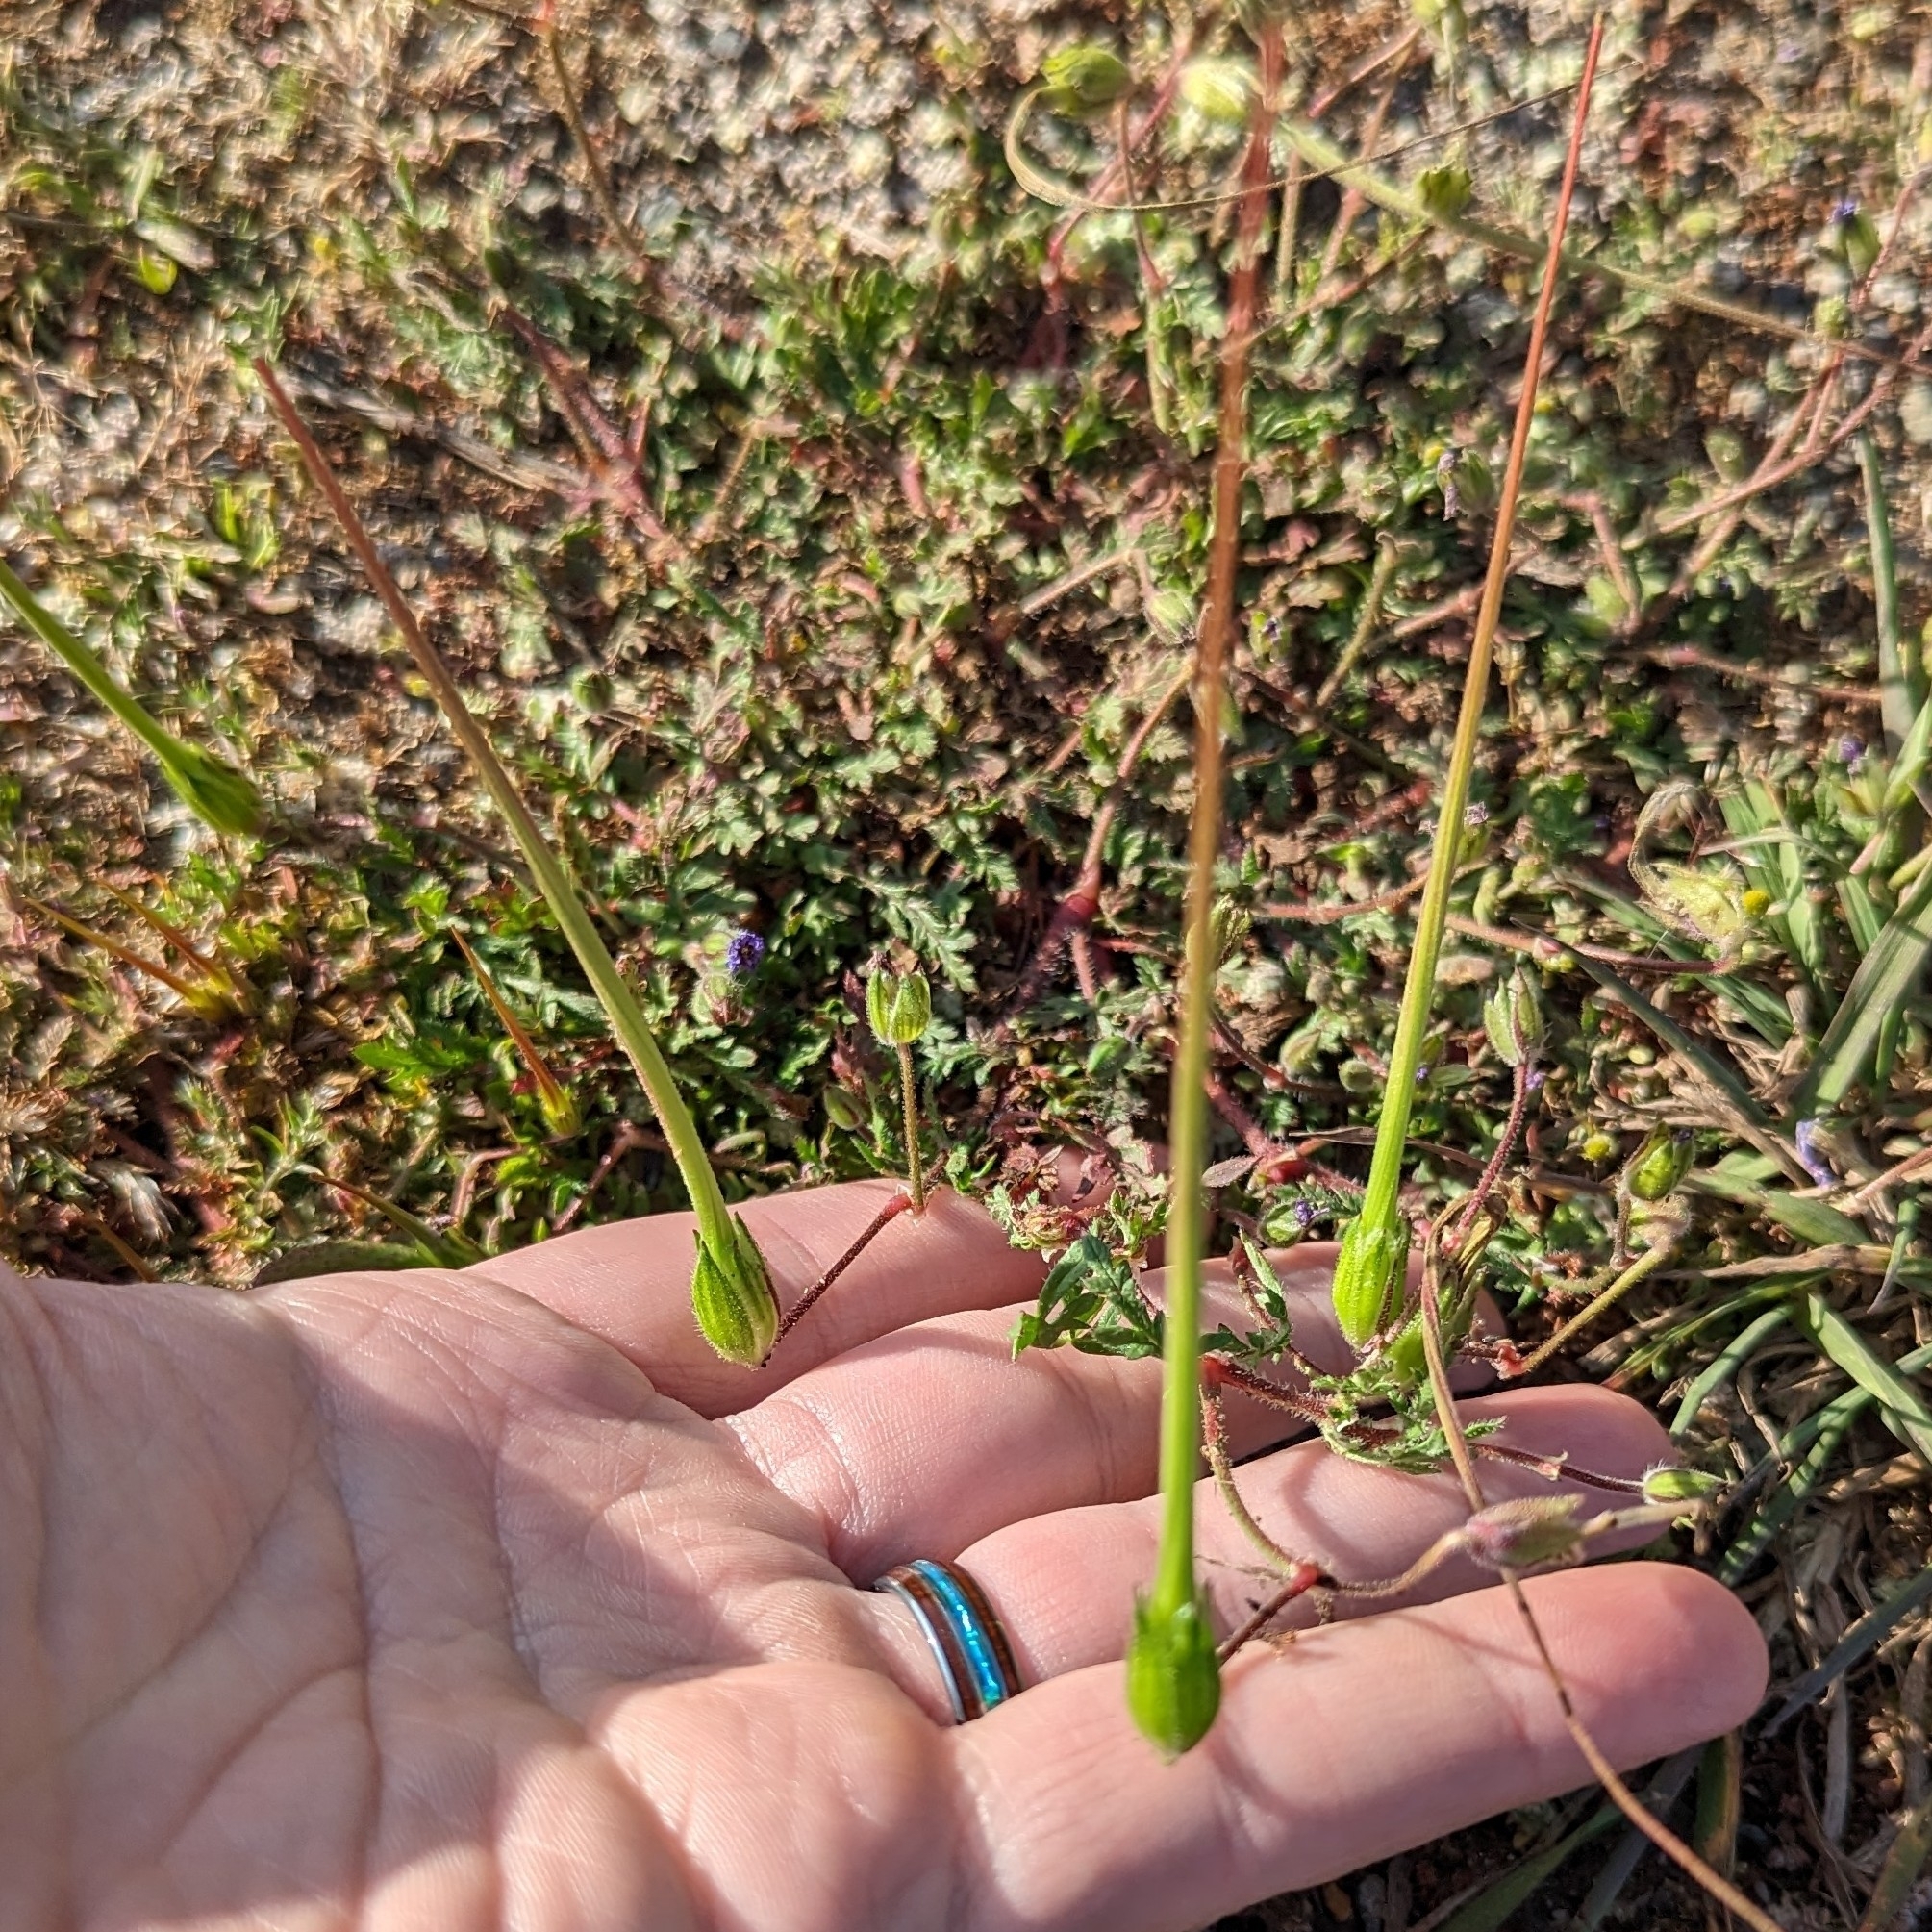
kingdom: Plantae
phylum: Tracheophyta
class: Magnoliopsida
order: Geraniales
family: Geraniaceae
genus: Erodium
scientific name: Erodium botrys
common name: Mediterranean stork's-bill
